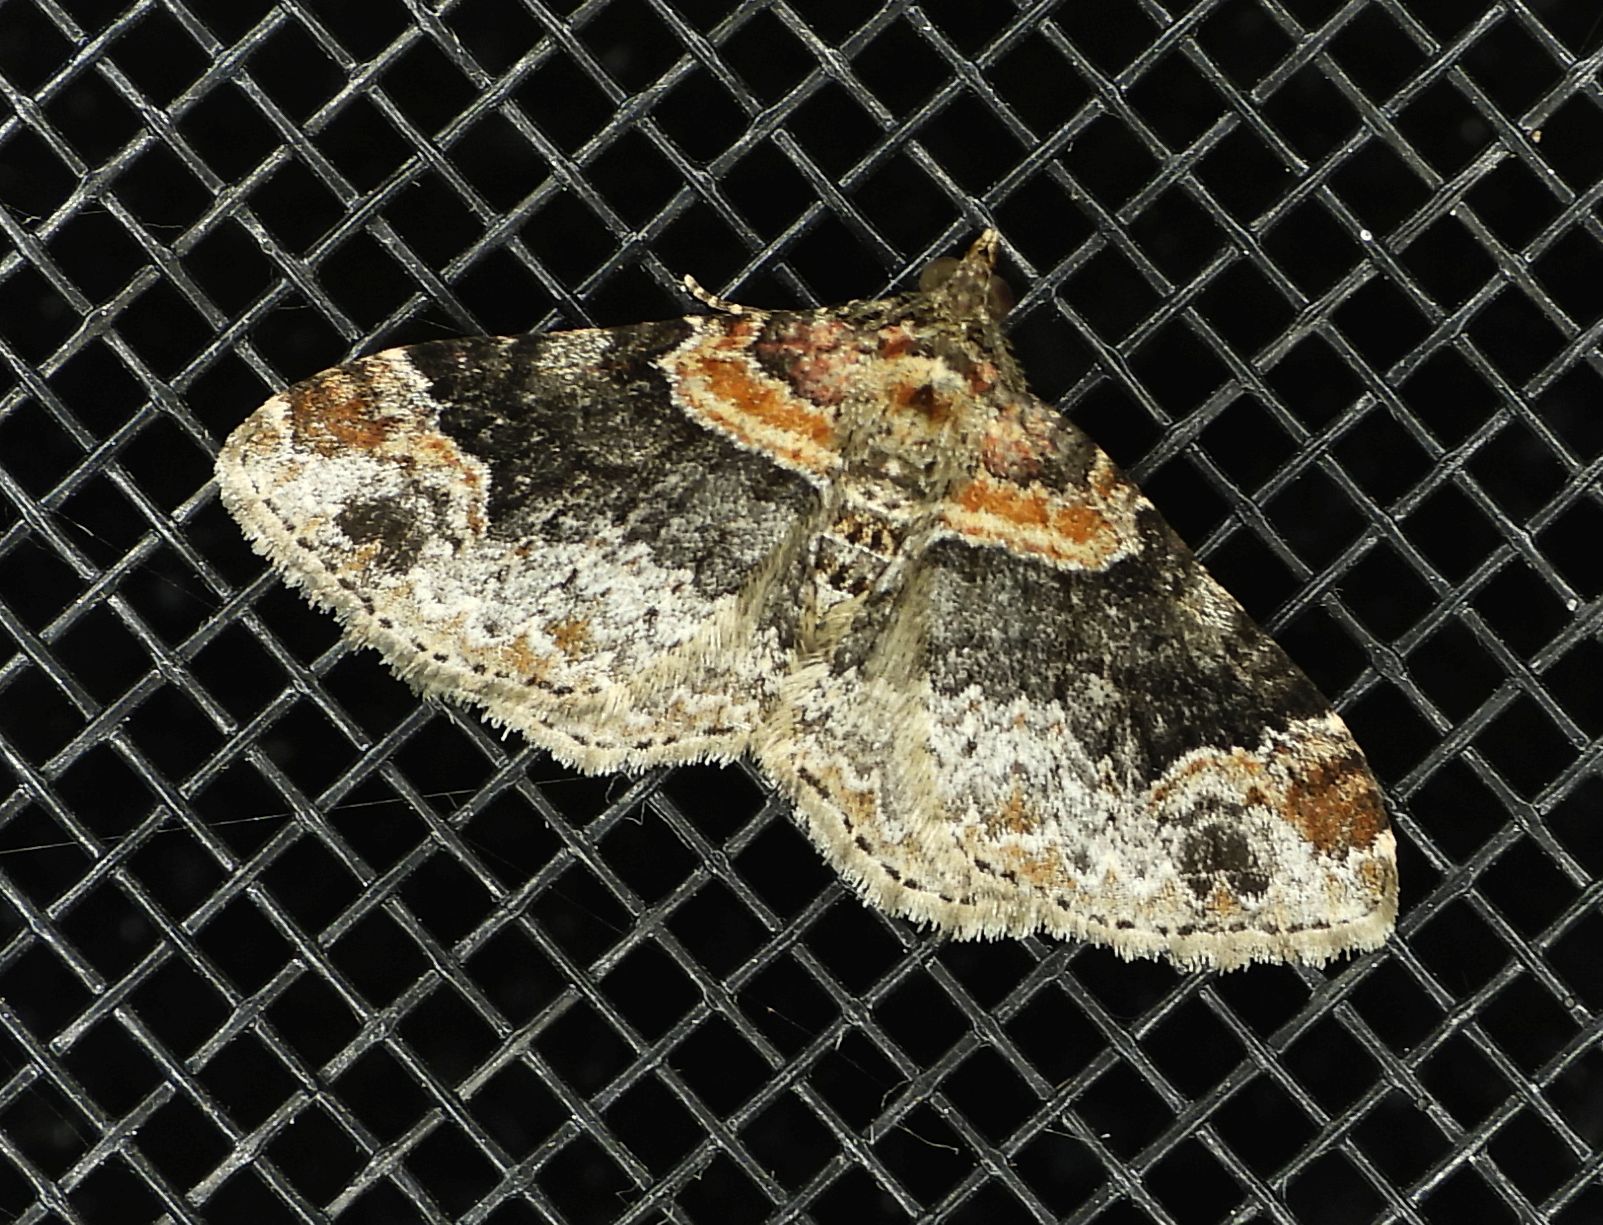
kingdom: Animalia
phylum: Arthropoda
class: Insecta
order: Lepidoptera
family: Geometridae
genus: Xanthorhoe
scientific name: Xanthorhoe ferrugata
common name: Dark-barred twin-spot carpet
